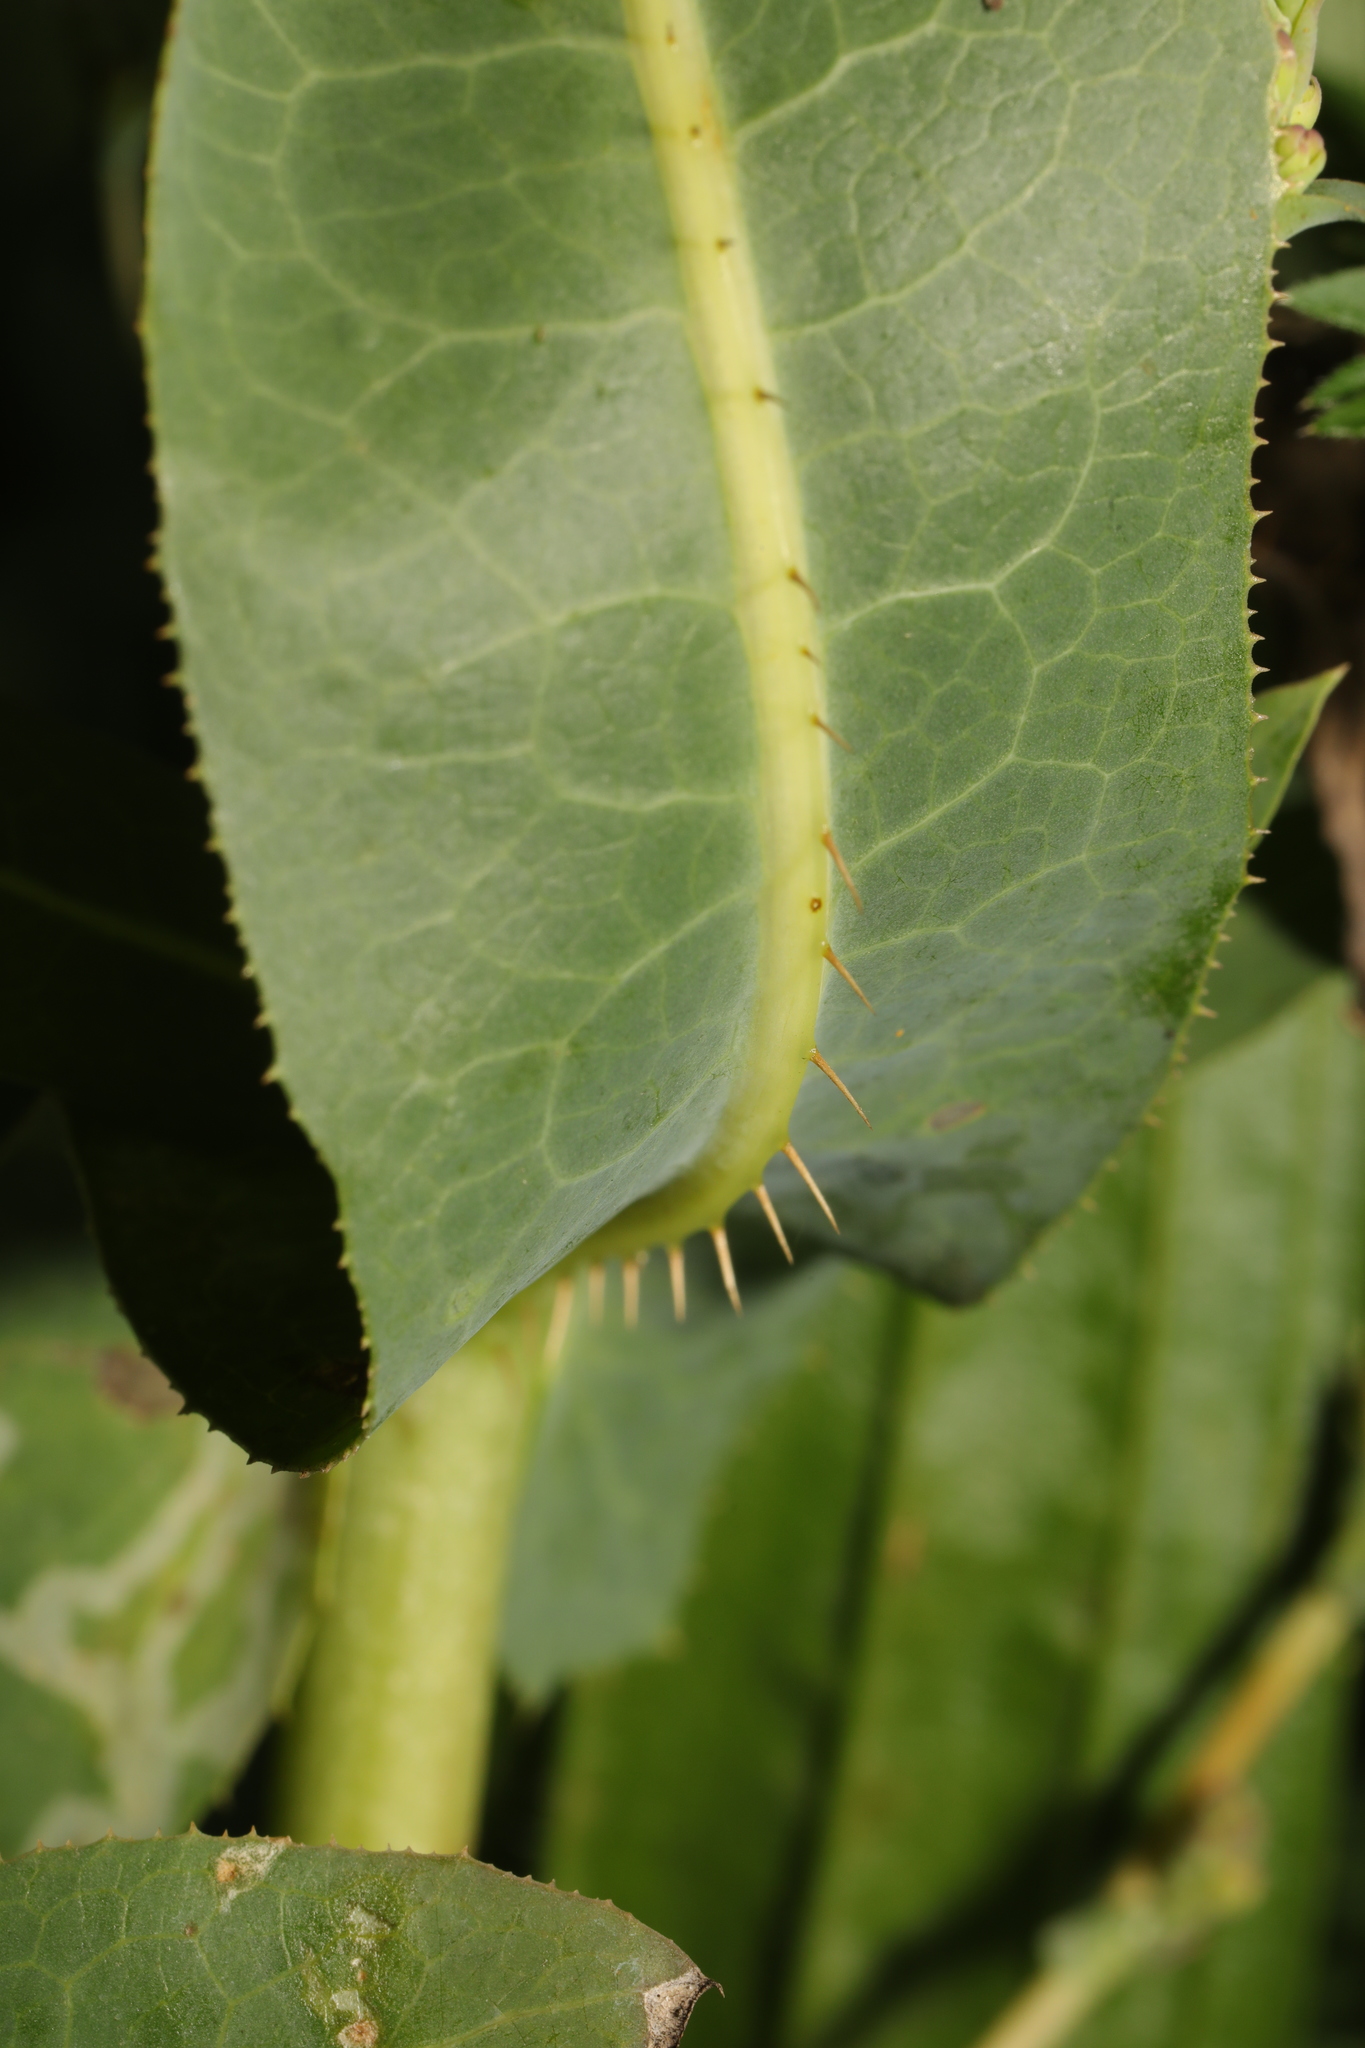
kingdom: Plantae
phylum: Tracheophyta
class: Magnoliopsida
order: Asterales
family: Asteraceae
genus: Lactuca
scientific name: Lactuca serriola
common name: Prickly lettuce
